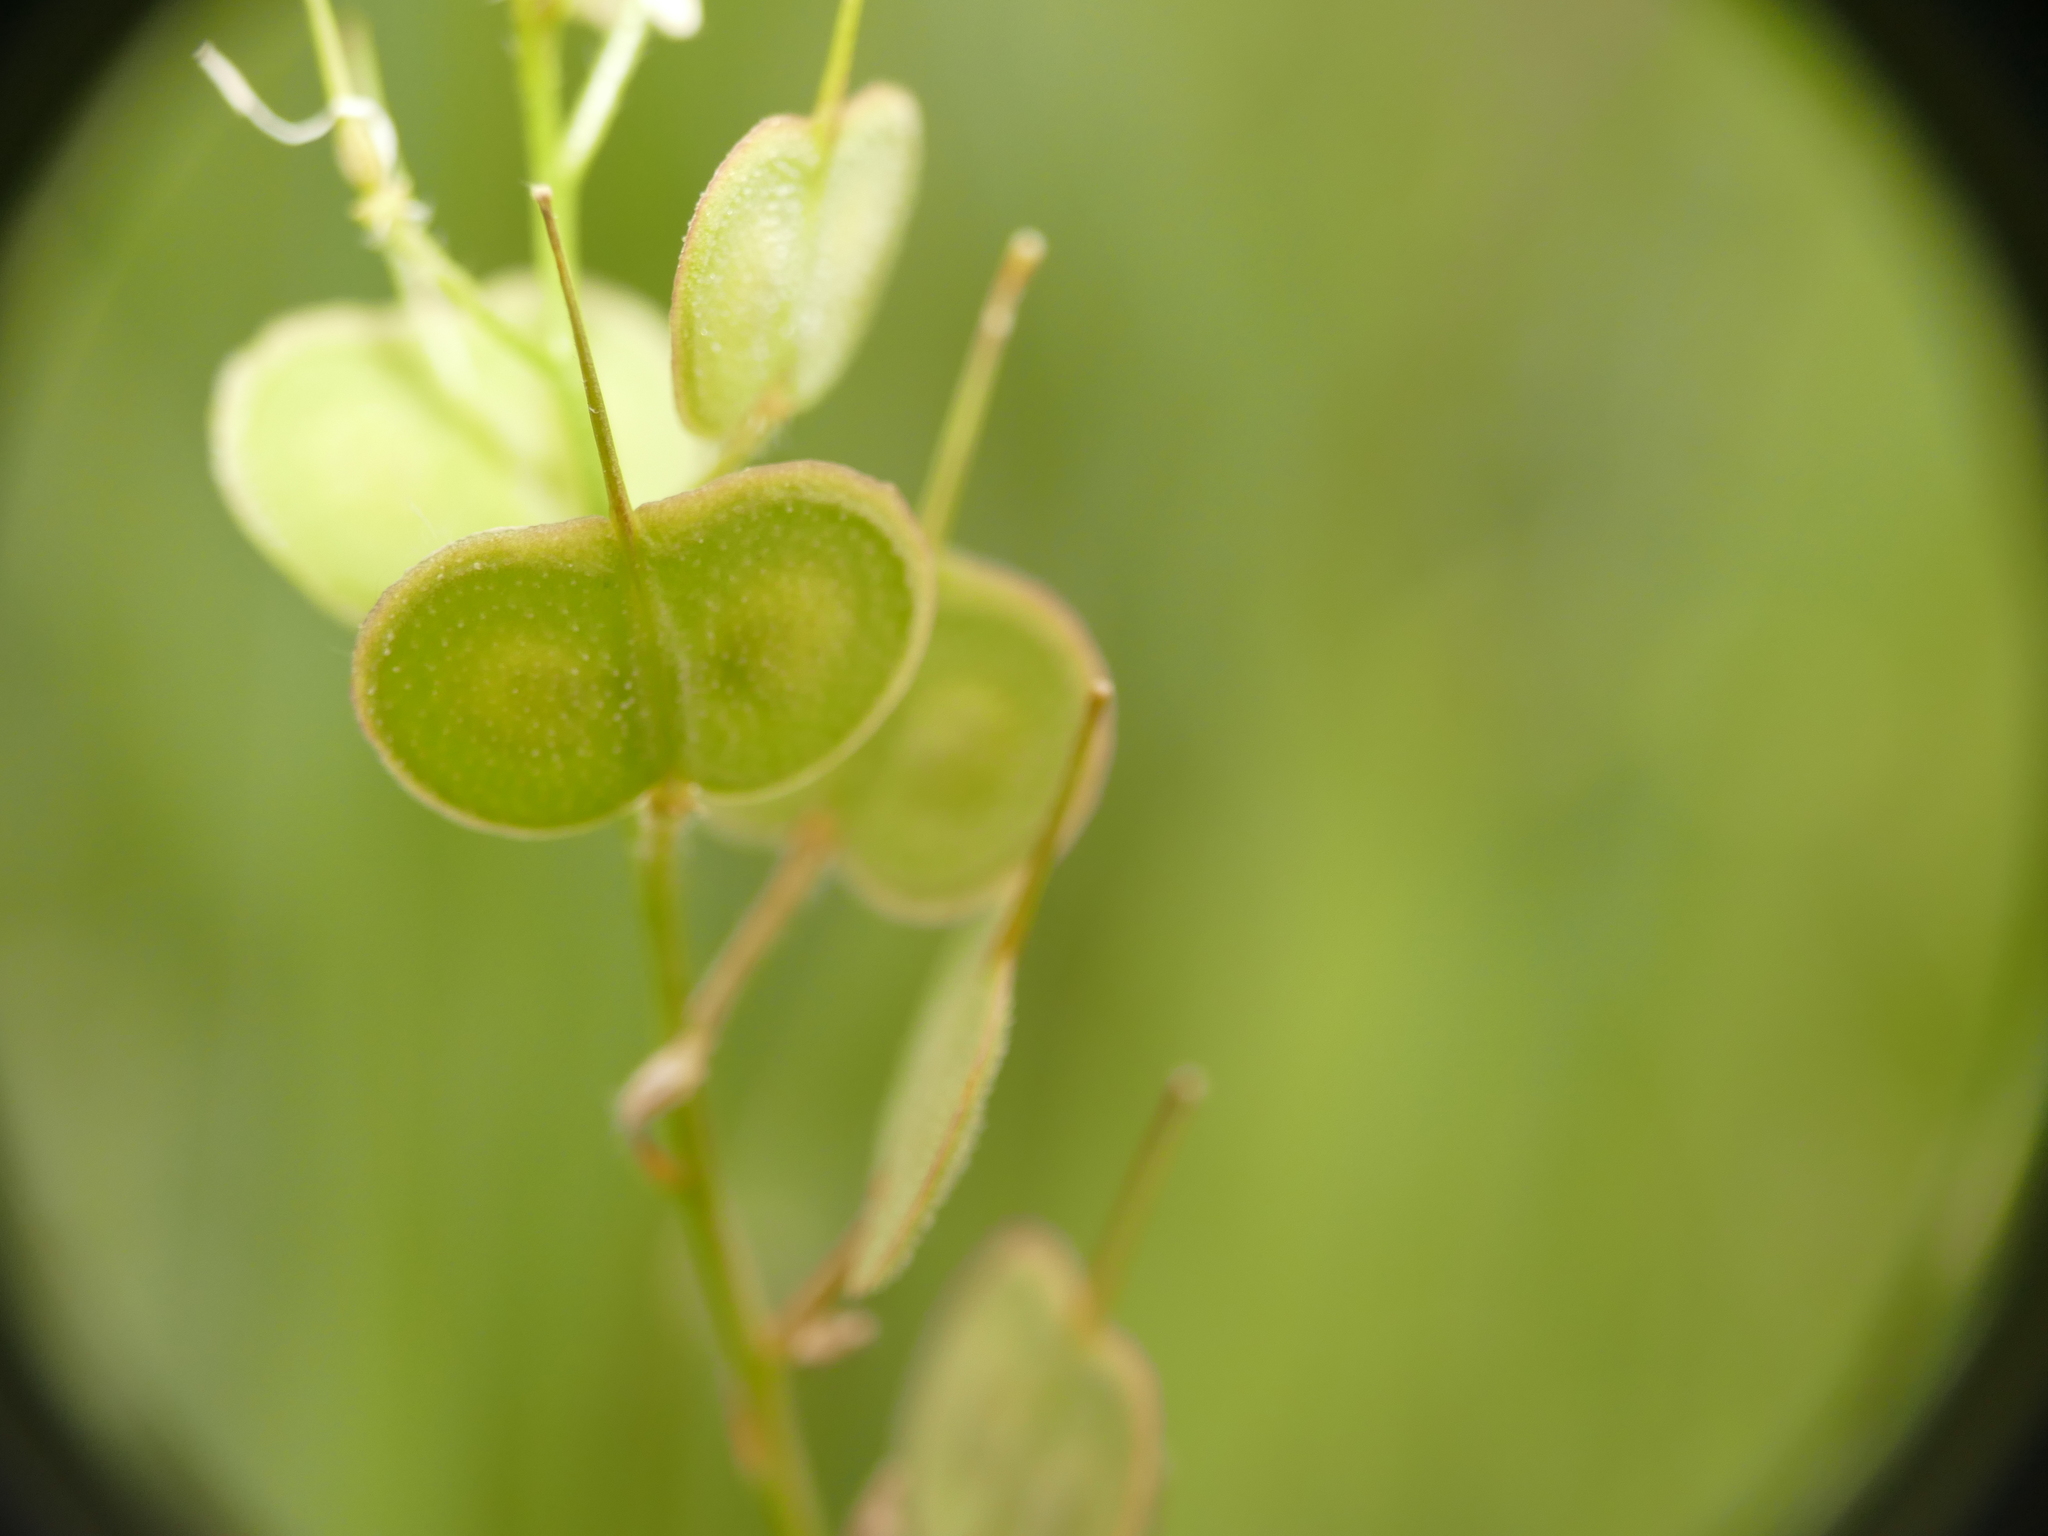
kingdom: Plantae
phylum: Tracheophyta
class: Magnoliopsida
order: Brassicales
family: Brassicaceae
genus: Biscutella
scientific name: Biscutella auriculata
